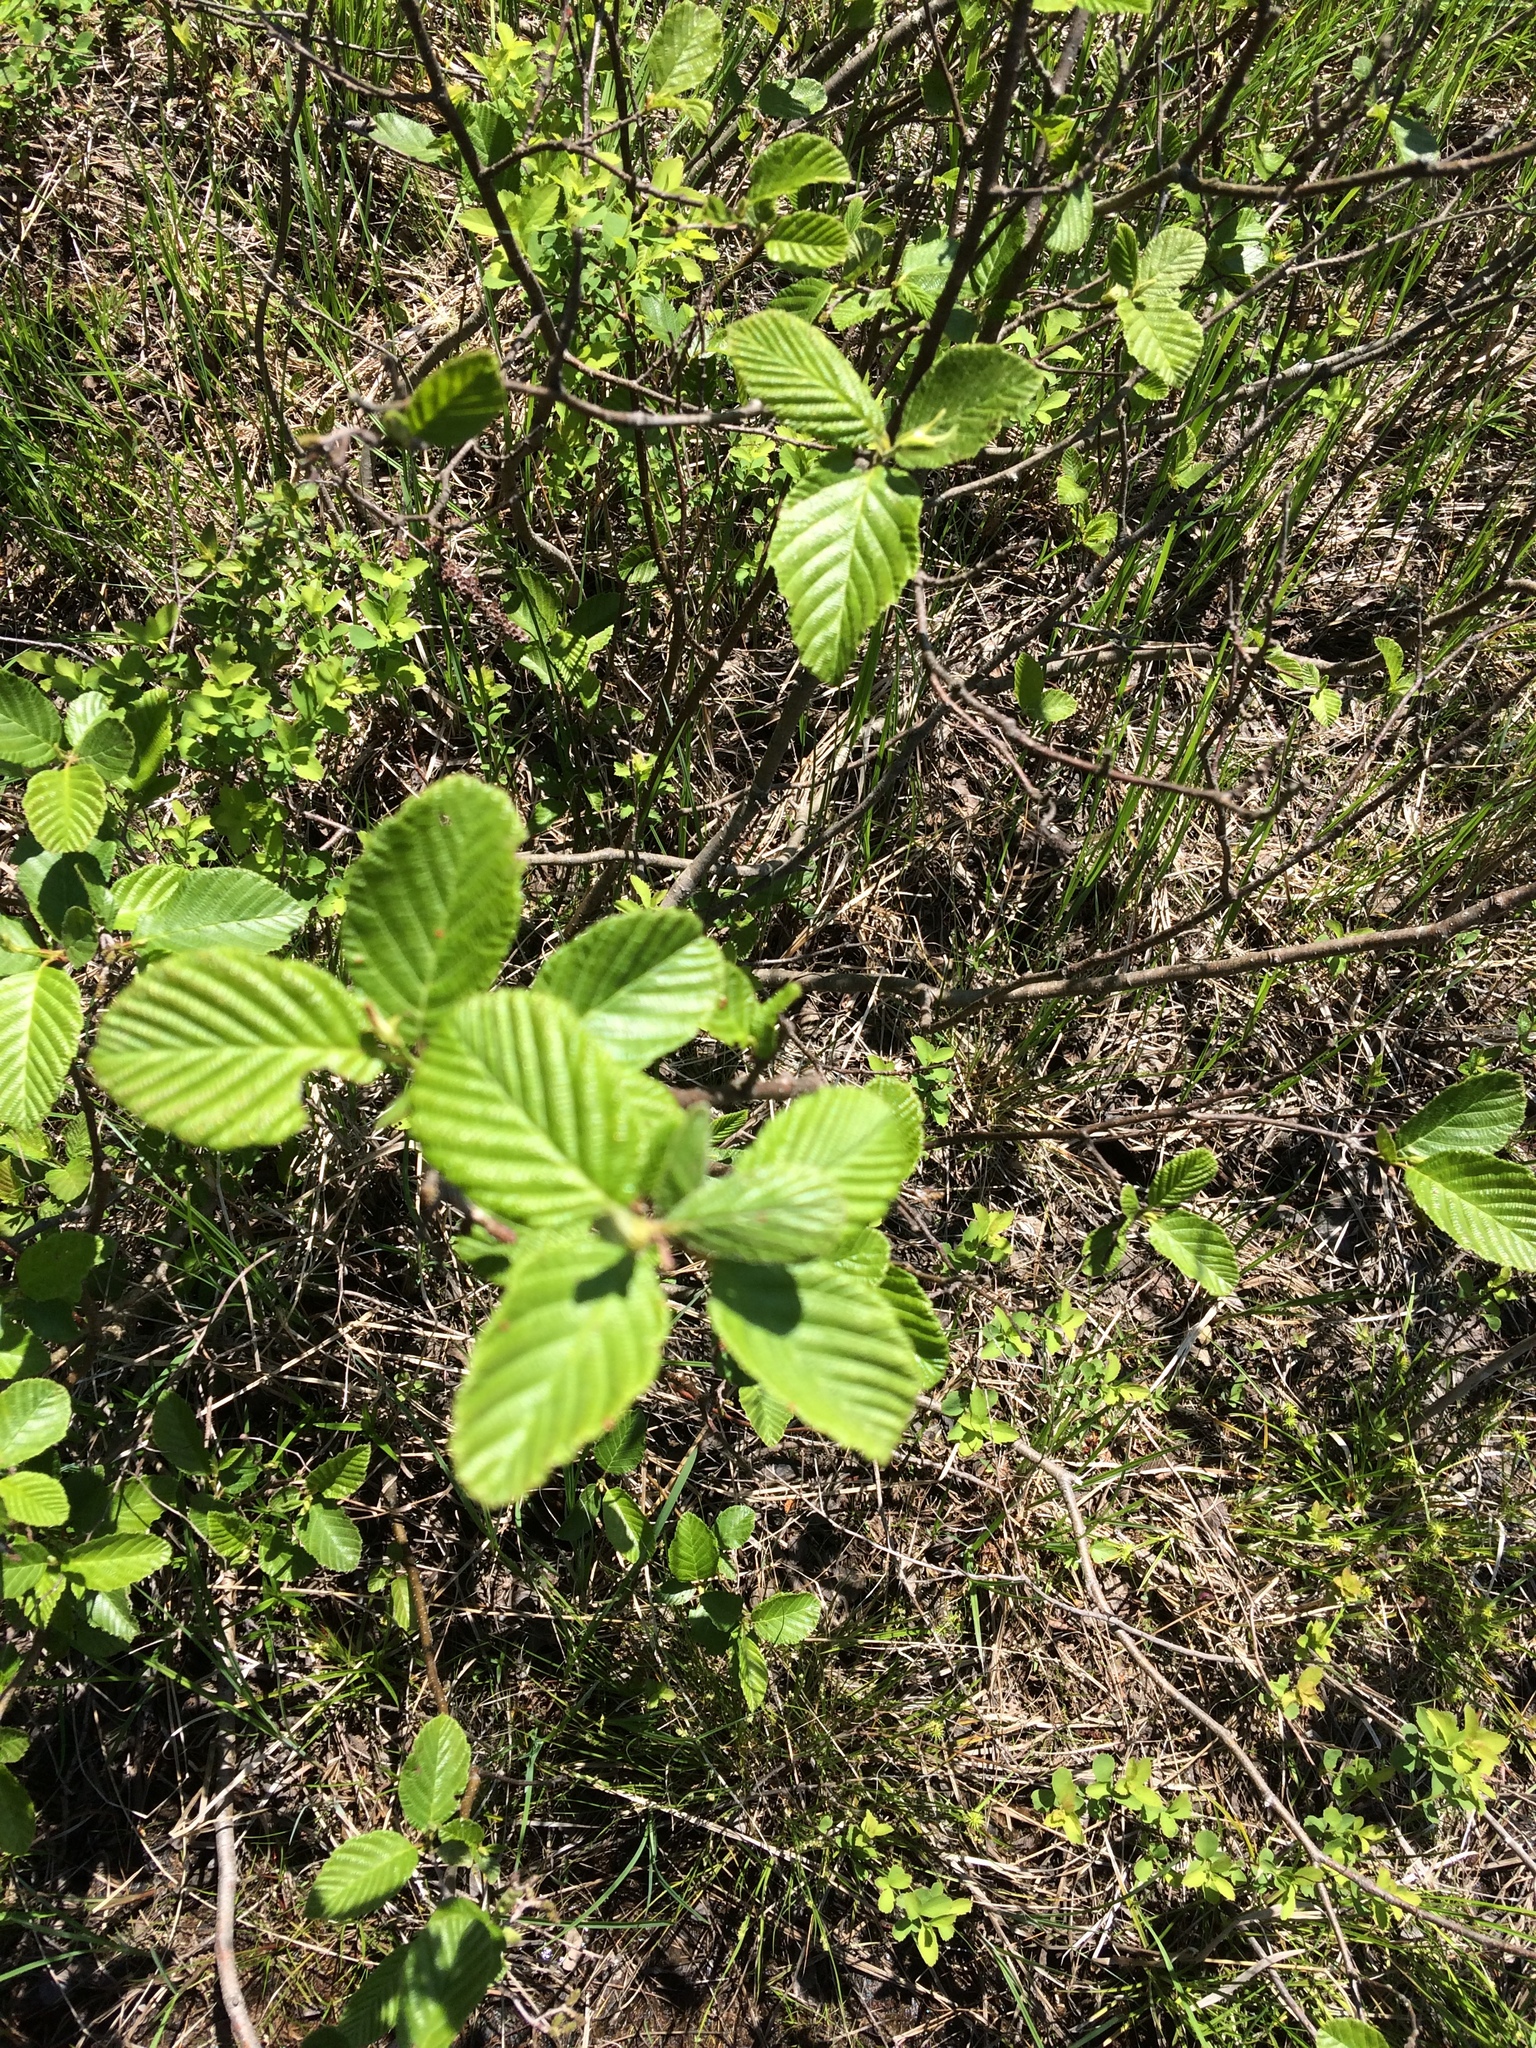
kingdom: Plantae
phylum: Tracheophyta
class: Magnoliopsida
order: Fagales
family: Betulaceae
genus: Alnus
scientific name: Alnus incana
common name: Grey alder
